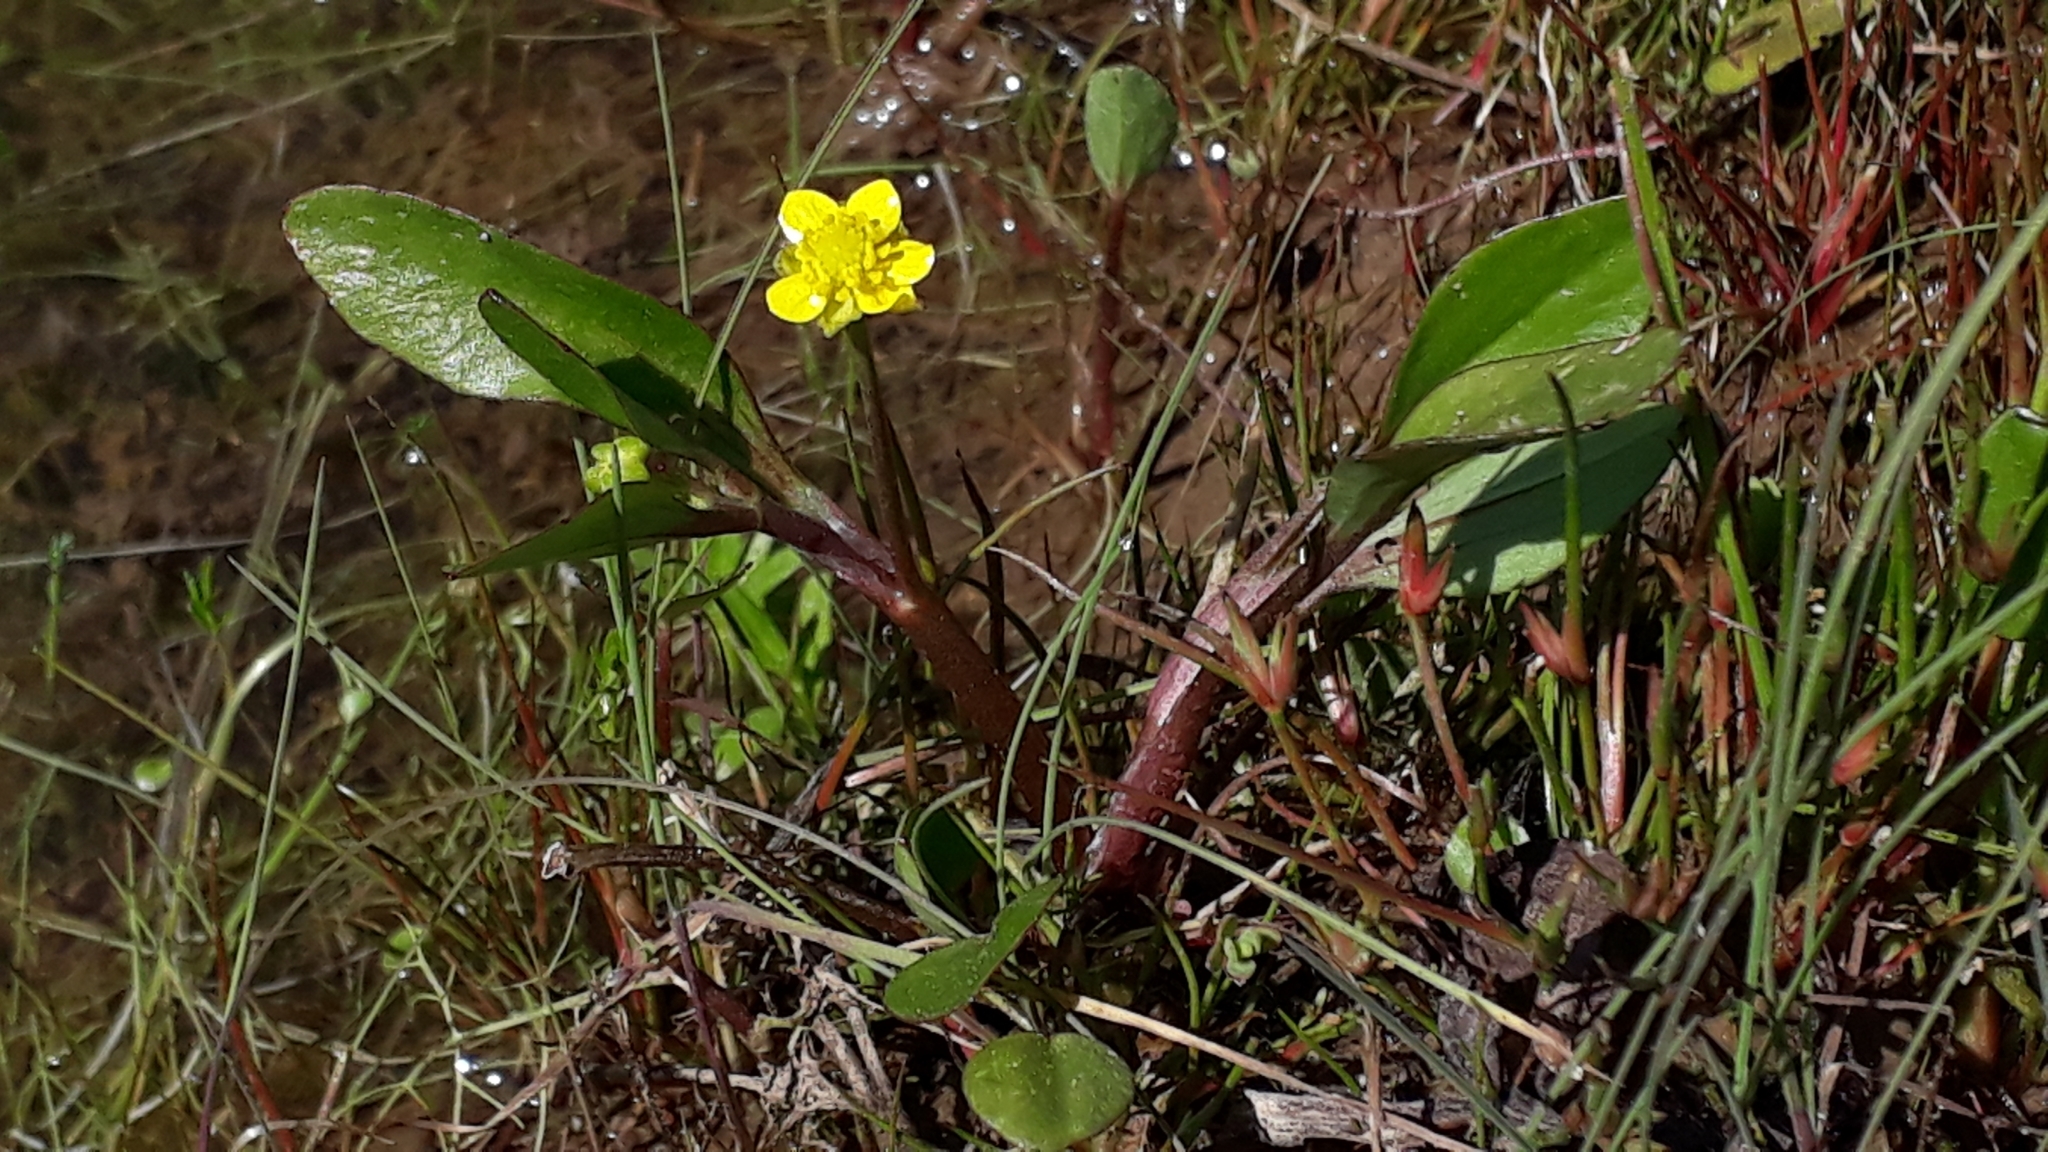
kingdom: Plantae
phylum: Tracheophyta
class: Magnoliopsida
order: Ranunculales
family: Ranunculaceae
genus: Ranunculus
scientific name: Ranunculus ophioglossifolius
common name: Adder's-tongue spearwort
